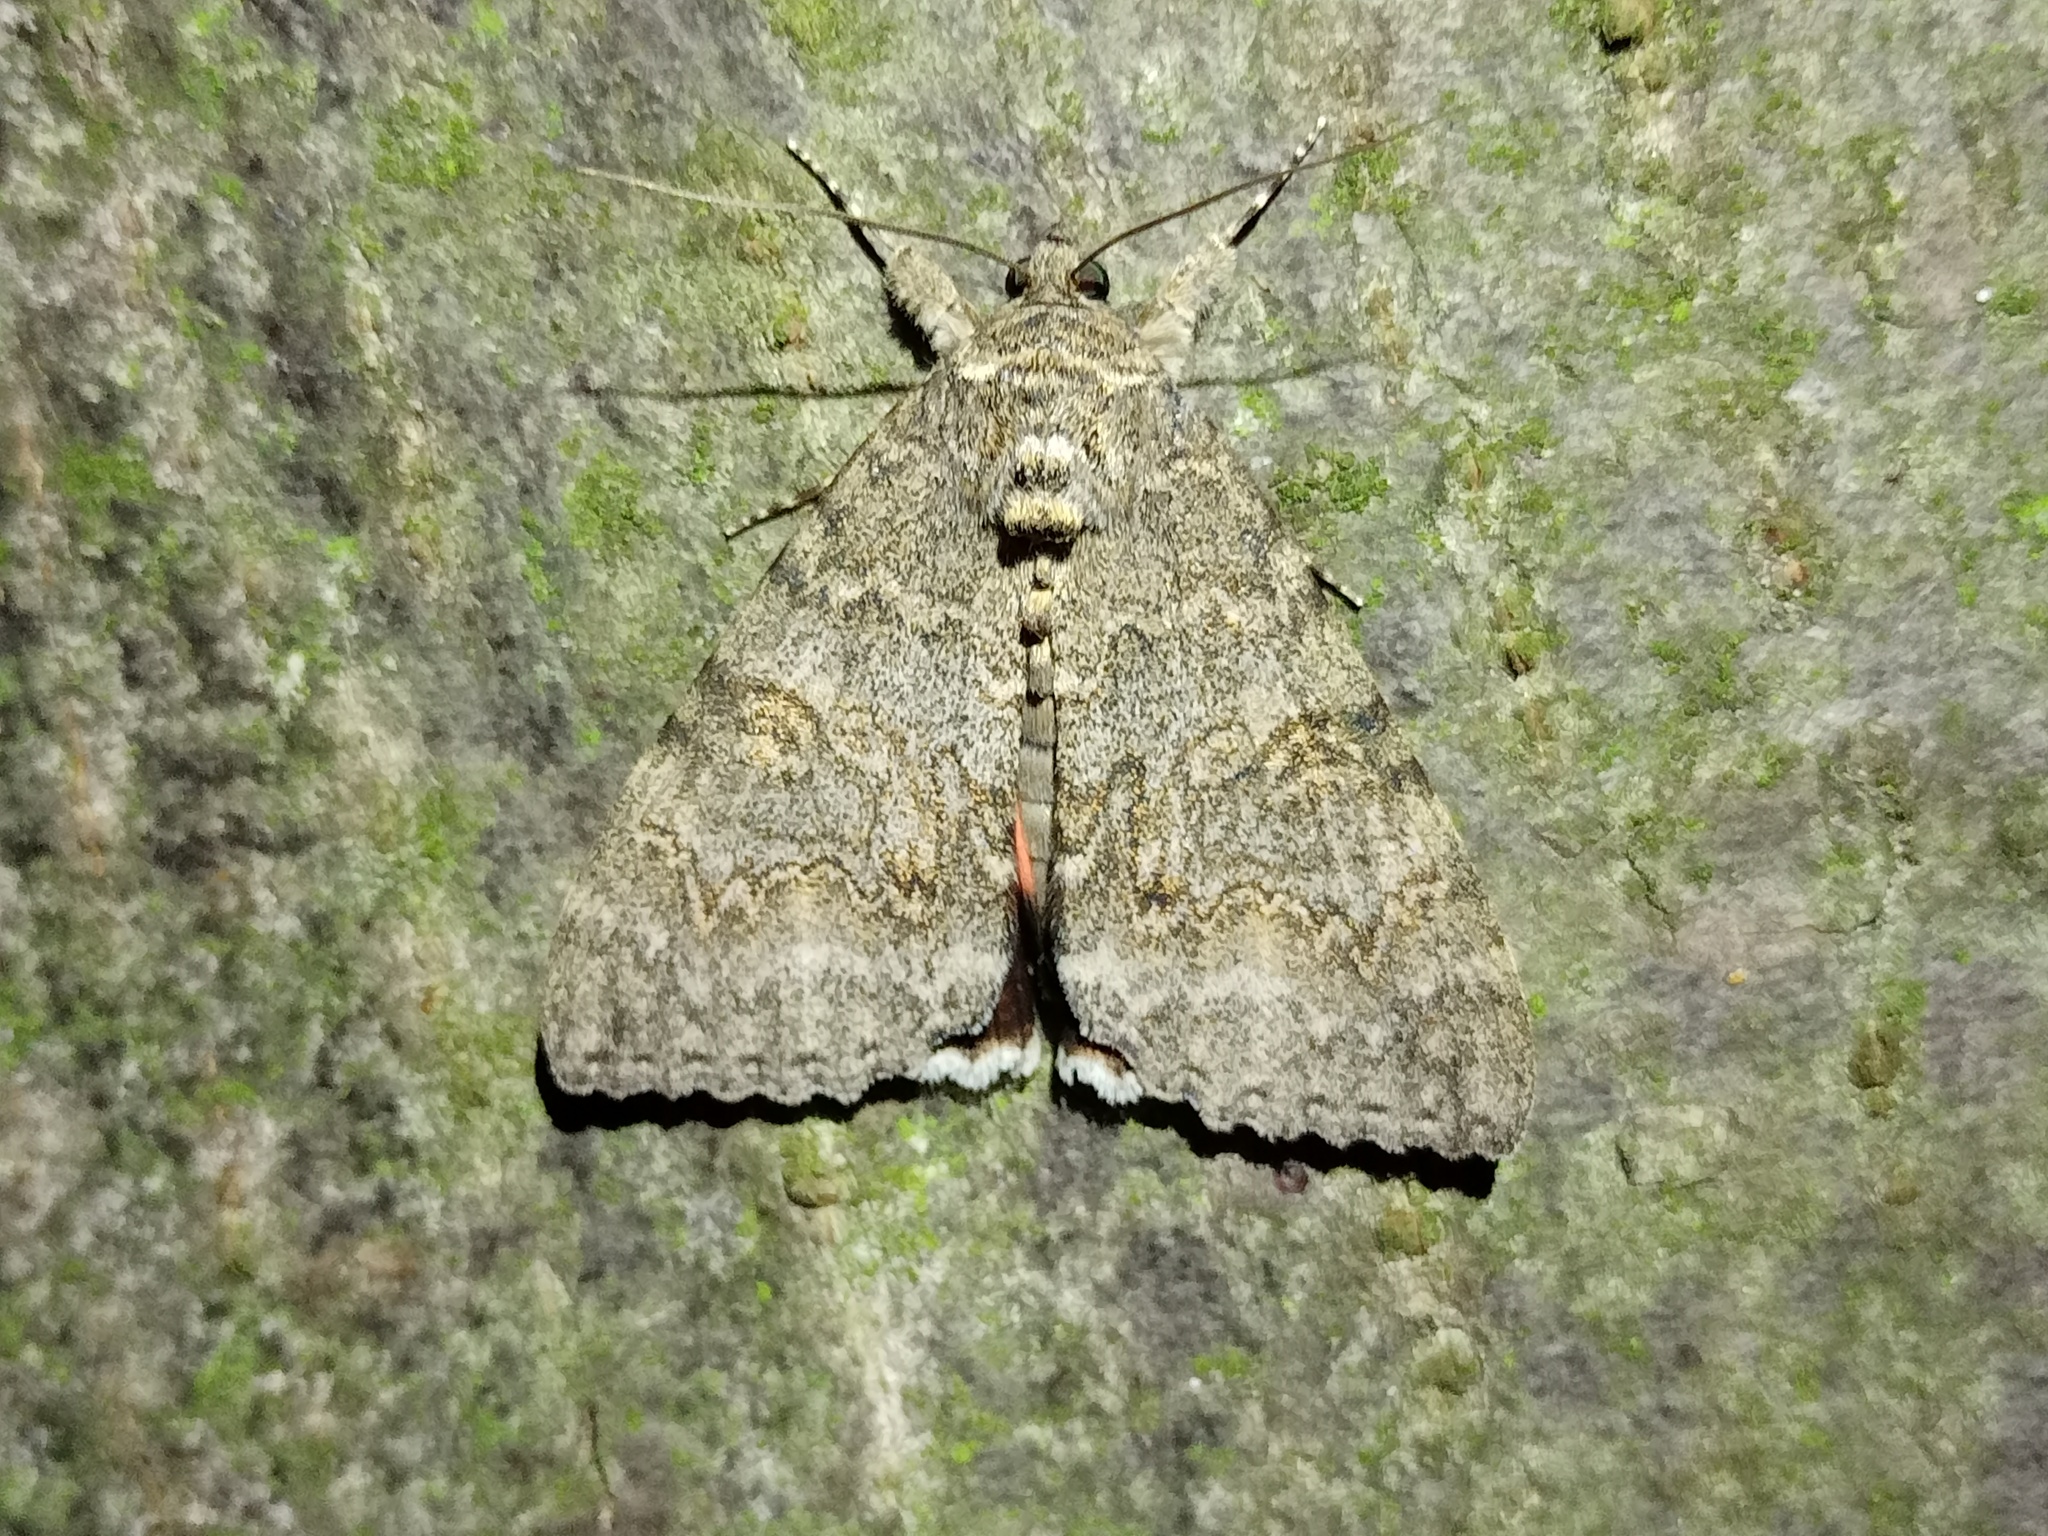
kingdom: Animalia
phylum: Arthropoda
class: Insecta
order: Lepidoptera
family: Erebidae
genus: Catocala
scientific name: Catocala nupta
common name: Red underwing
